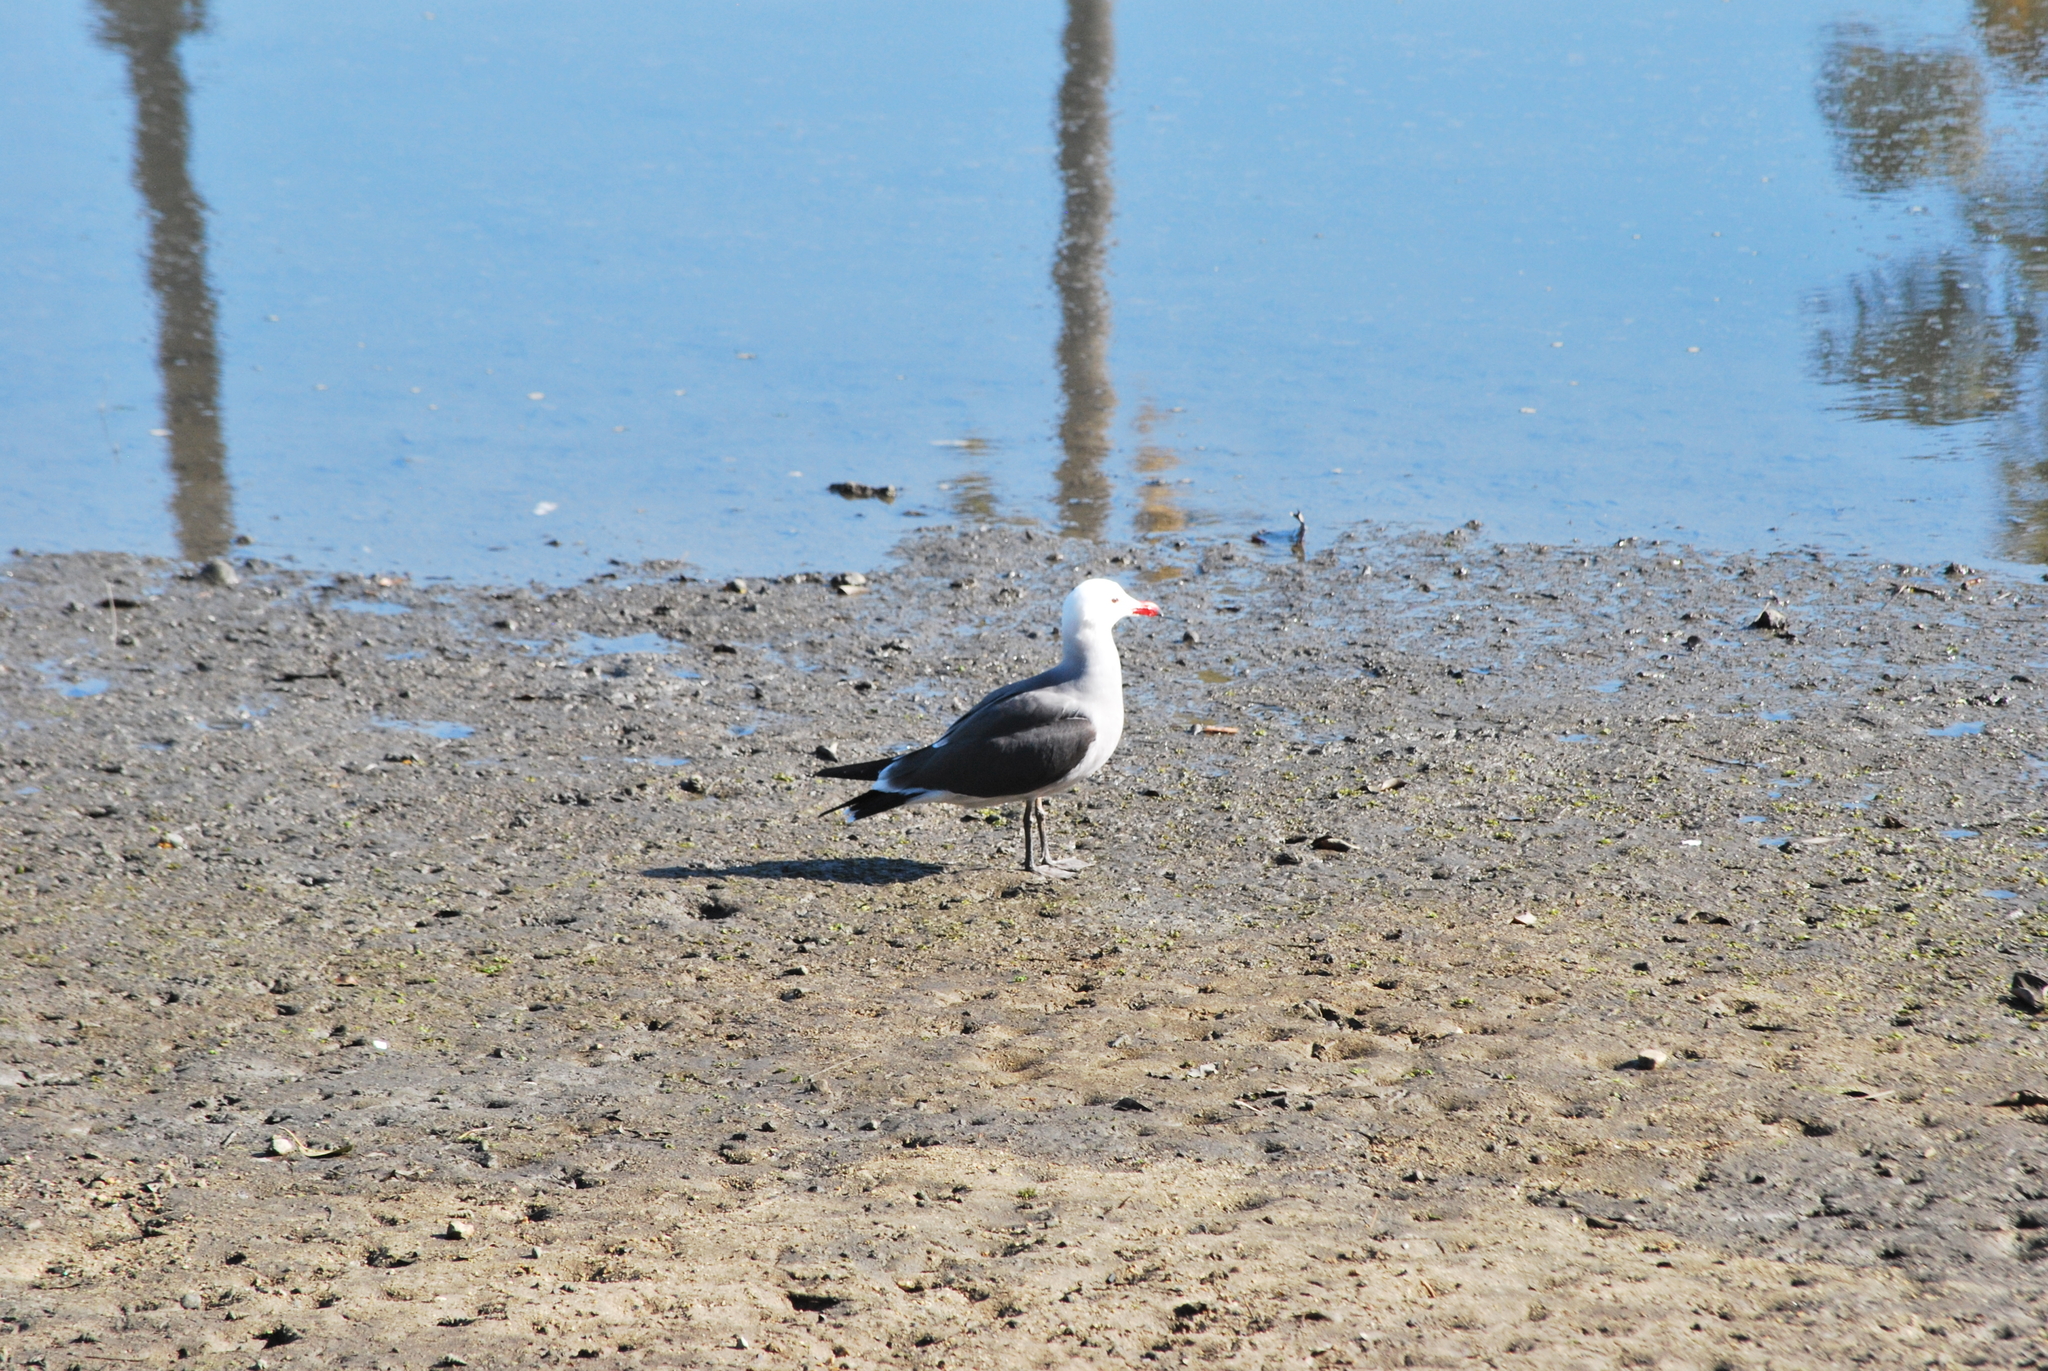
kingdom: Animalia
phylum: Chordata
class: Aves
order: Charadriiformes
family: Laridae
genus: Larus
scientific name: Larus heermanni
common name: Heermann's gull
